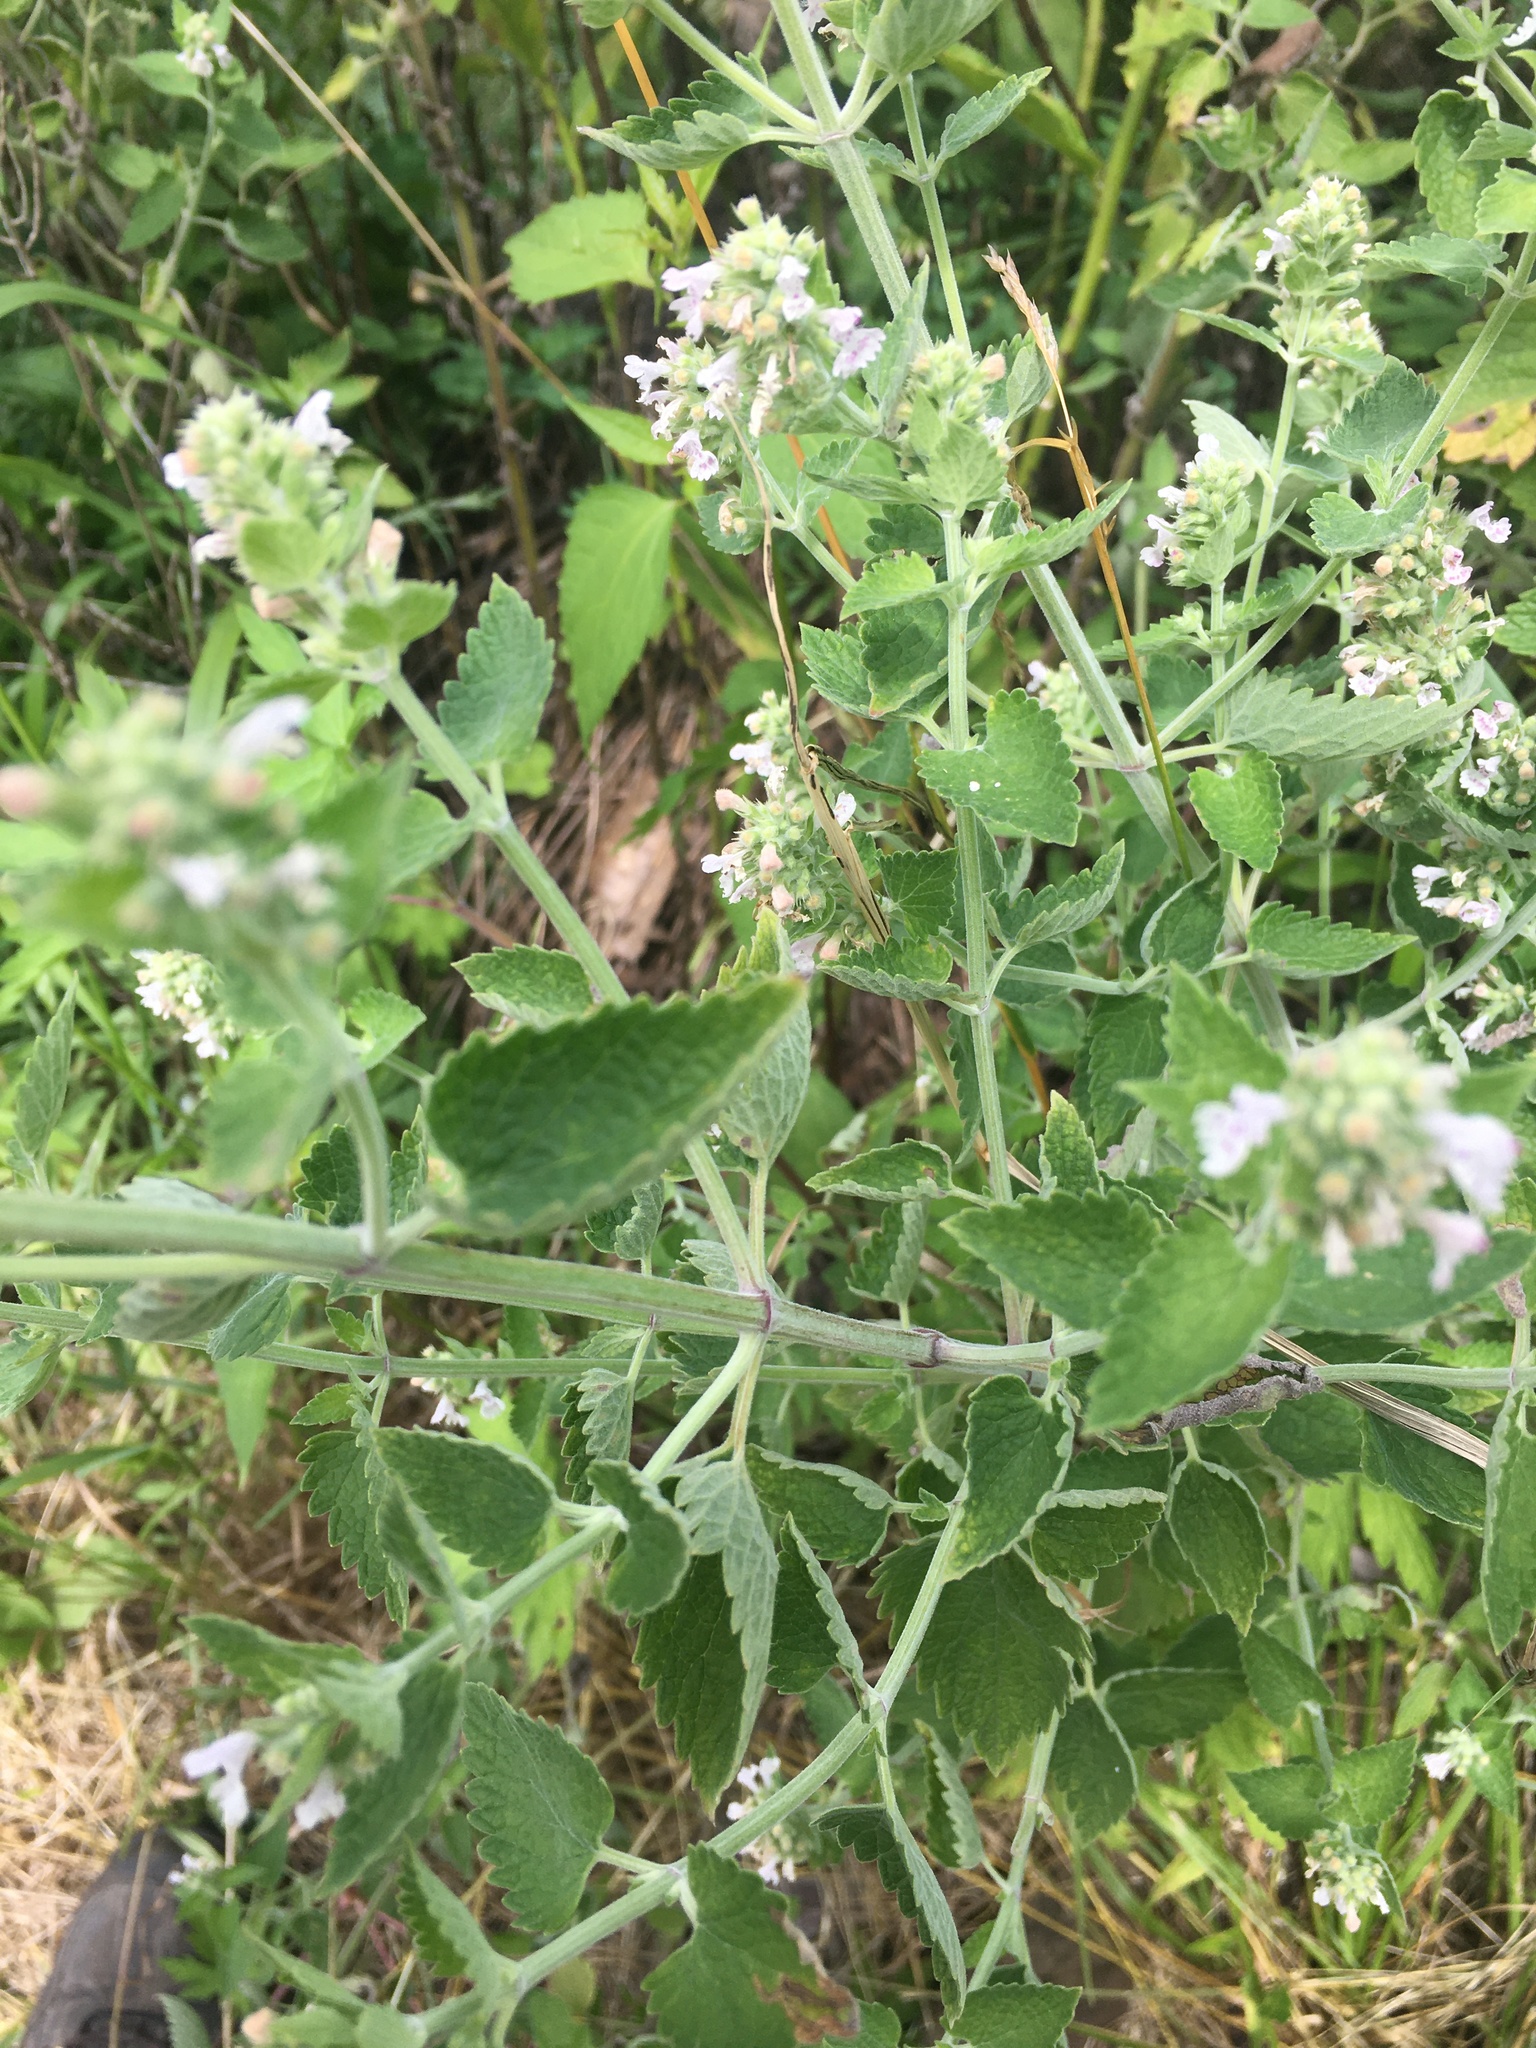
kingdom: Plantae
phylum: Tracheophyta
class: Magnoliopsida
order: Lamiales
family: Lamiaceae
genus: Nepeta
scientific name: Nepeta cataria
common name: Catnip
